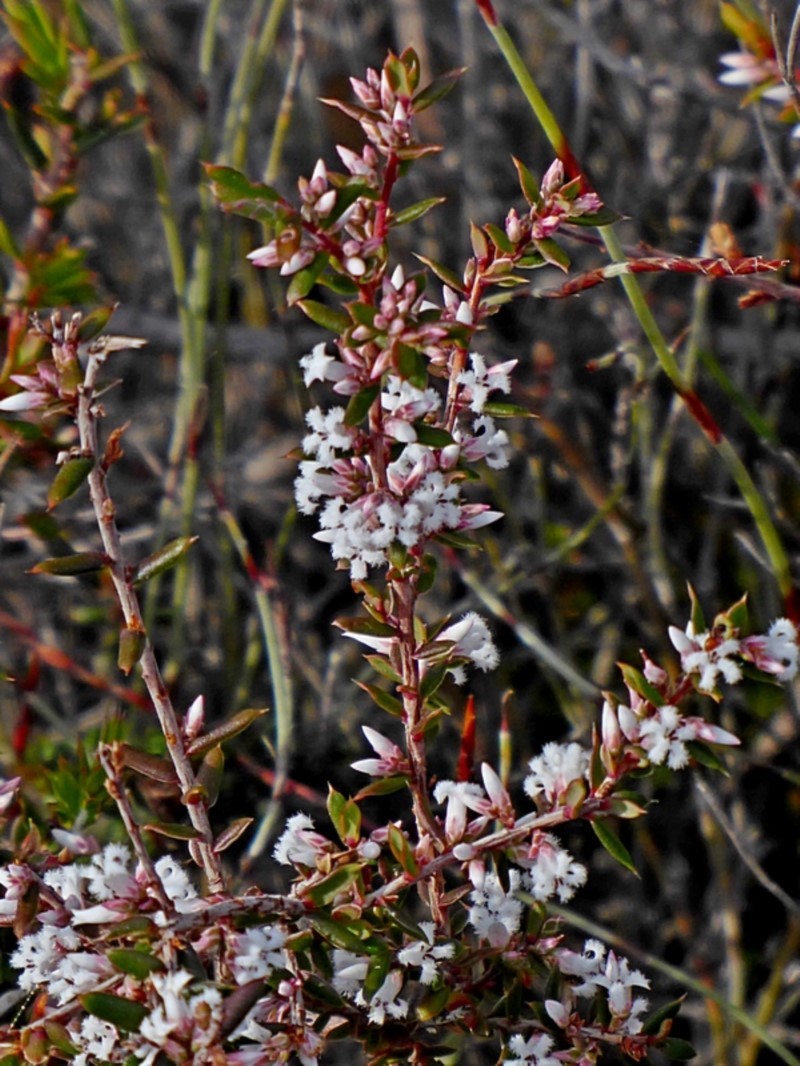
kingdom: Plantae
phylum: Tracheophyta
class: Magnoliopsida
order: Ericales
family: Ericaceae
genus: Styphelia
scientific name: Styphelia ericoides
